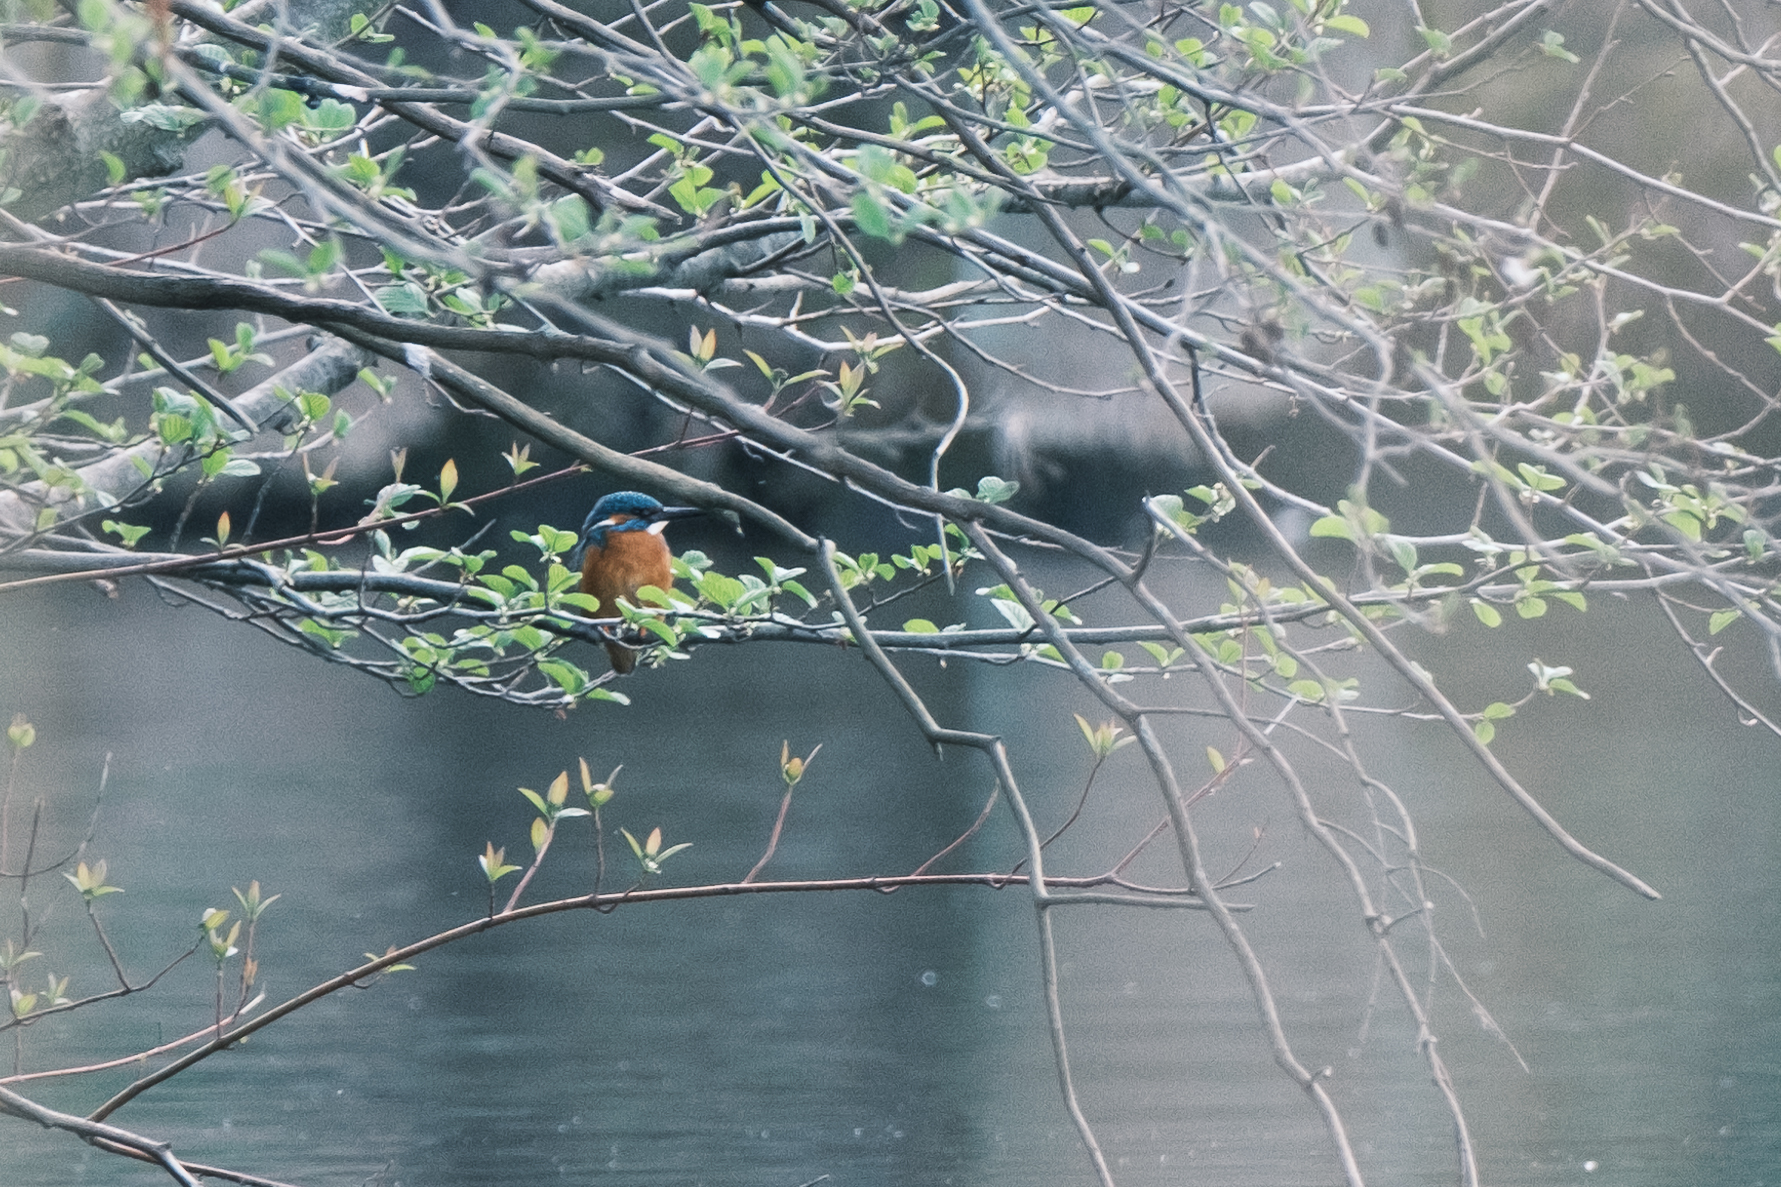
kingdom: Animalia
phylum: Chordata
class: Aves
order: Coraciiformes
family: Alcedinidae
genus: Alcedo
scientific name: Alcedo atthis
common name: Common kingfisher
